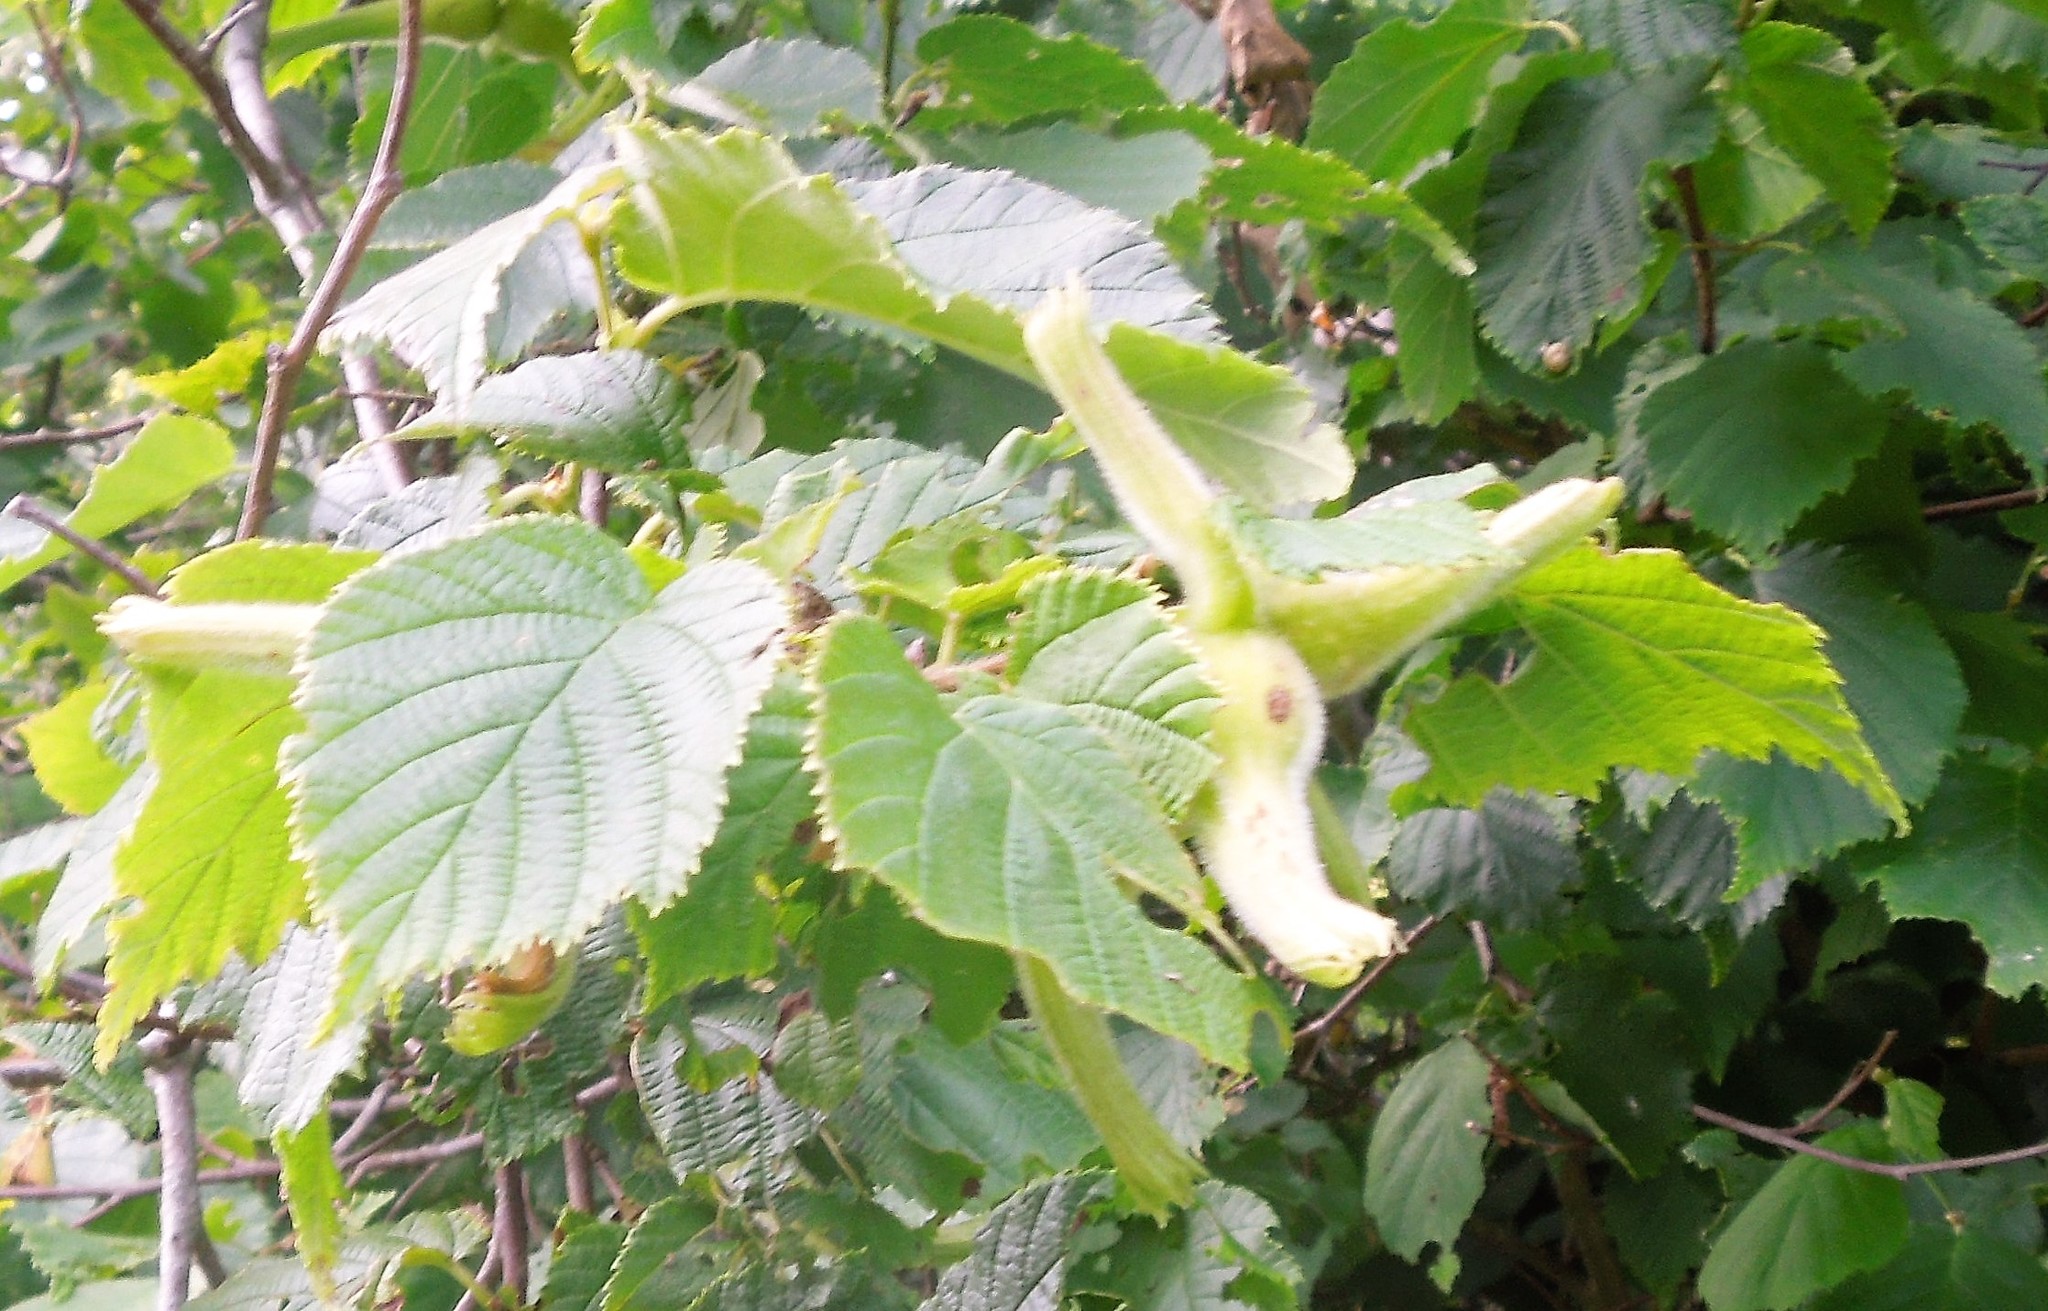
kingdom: Plantae
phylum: Tracheophyta
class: Magnoliopsida
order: Fagales
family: Betulaceae
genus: Corylus
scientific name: Corylus cornuta
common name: Beaked hazel
